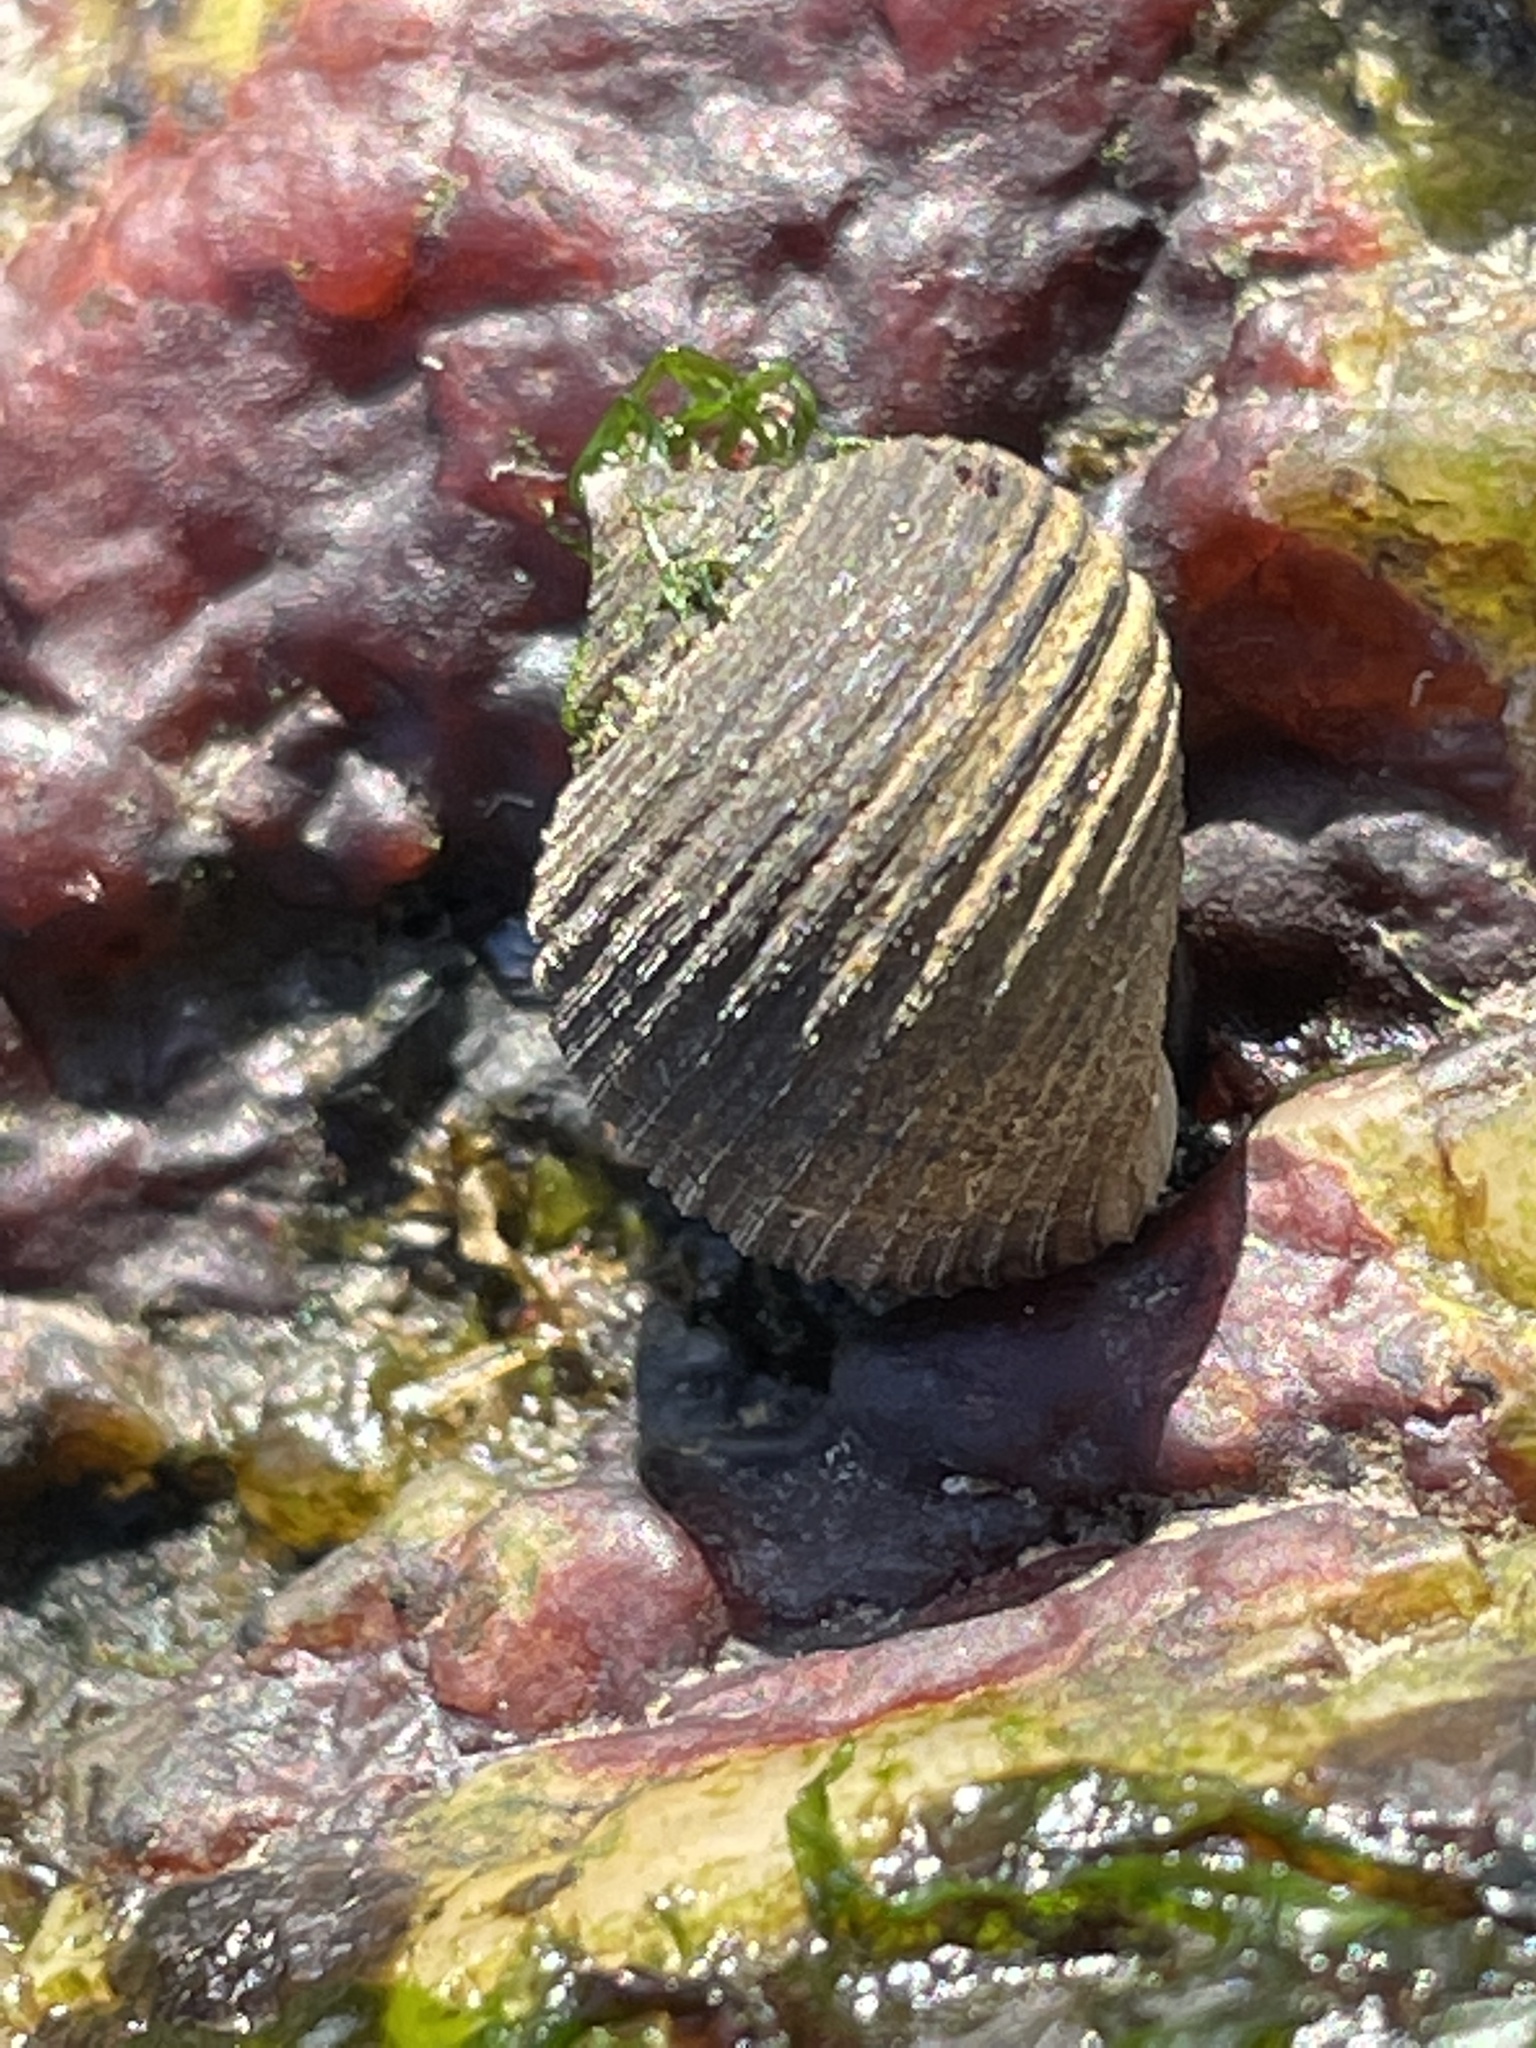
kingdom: Animalia
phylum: Mollusca
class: Gastropoda
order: Littorinimorpha
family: Littorinidae
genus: Littorina
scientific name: Littorina littorea
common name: Common periwinkle
